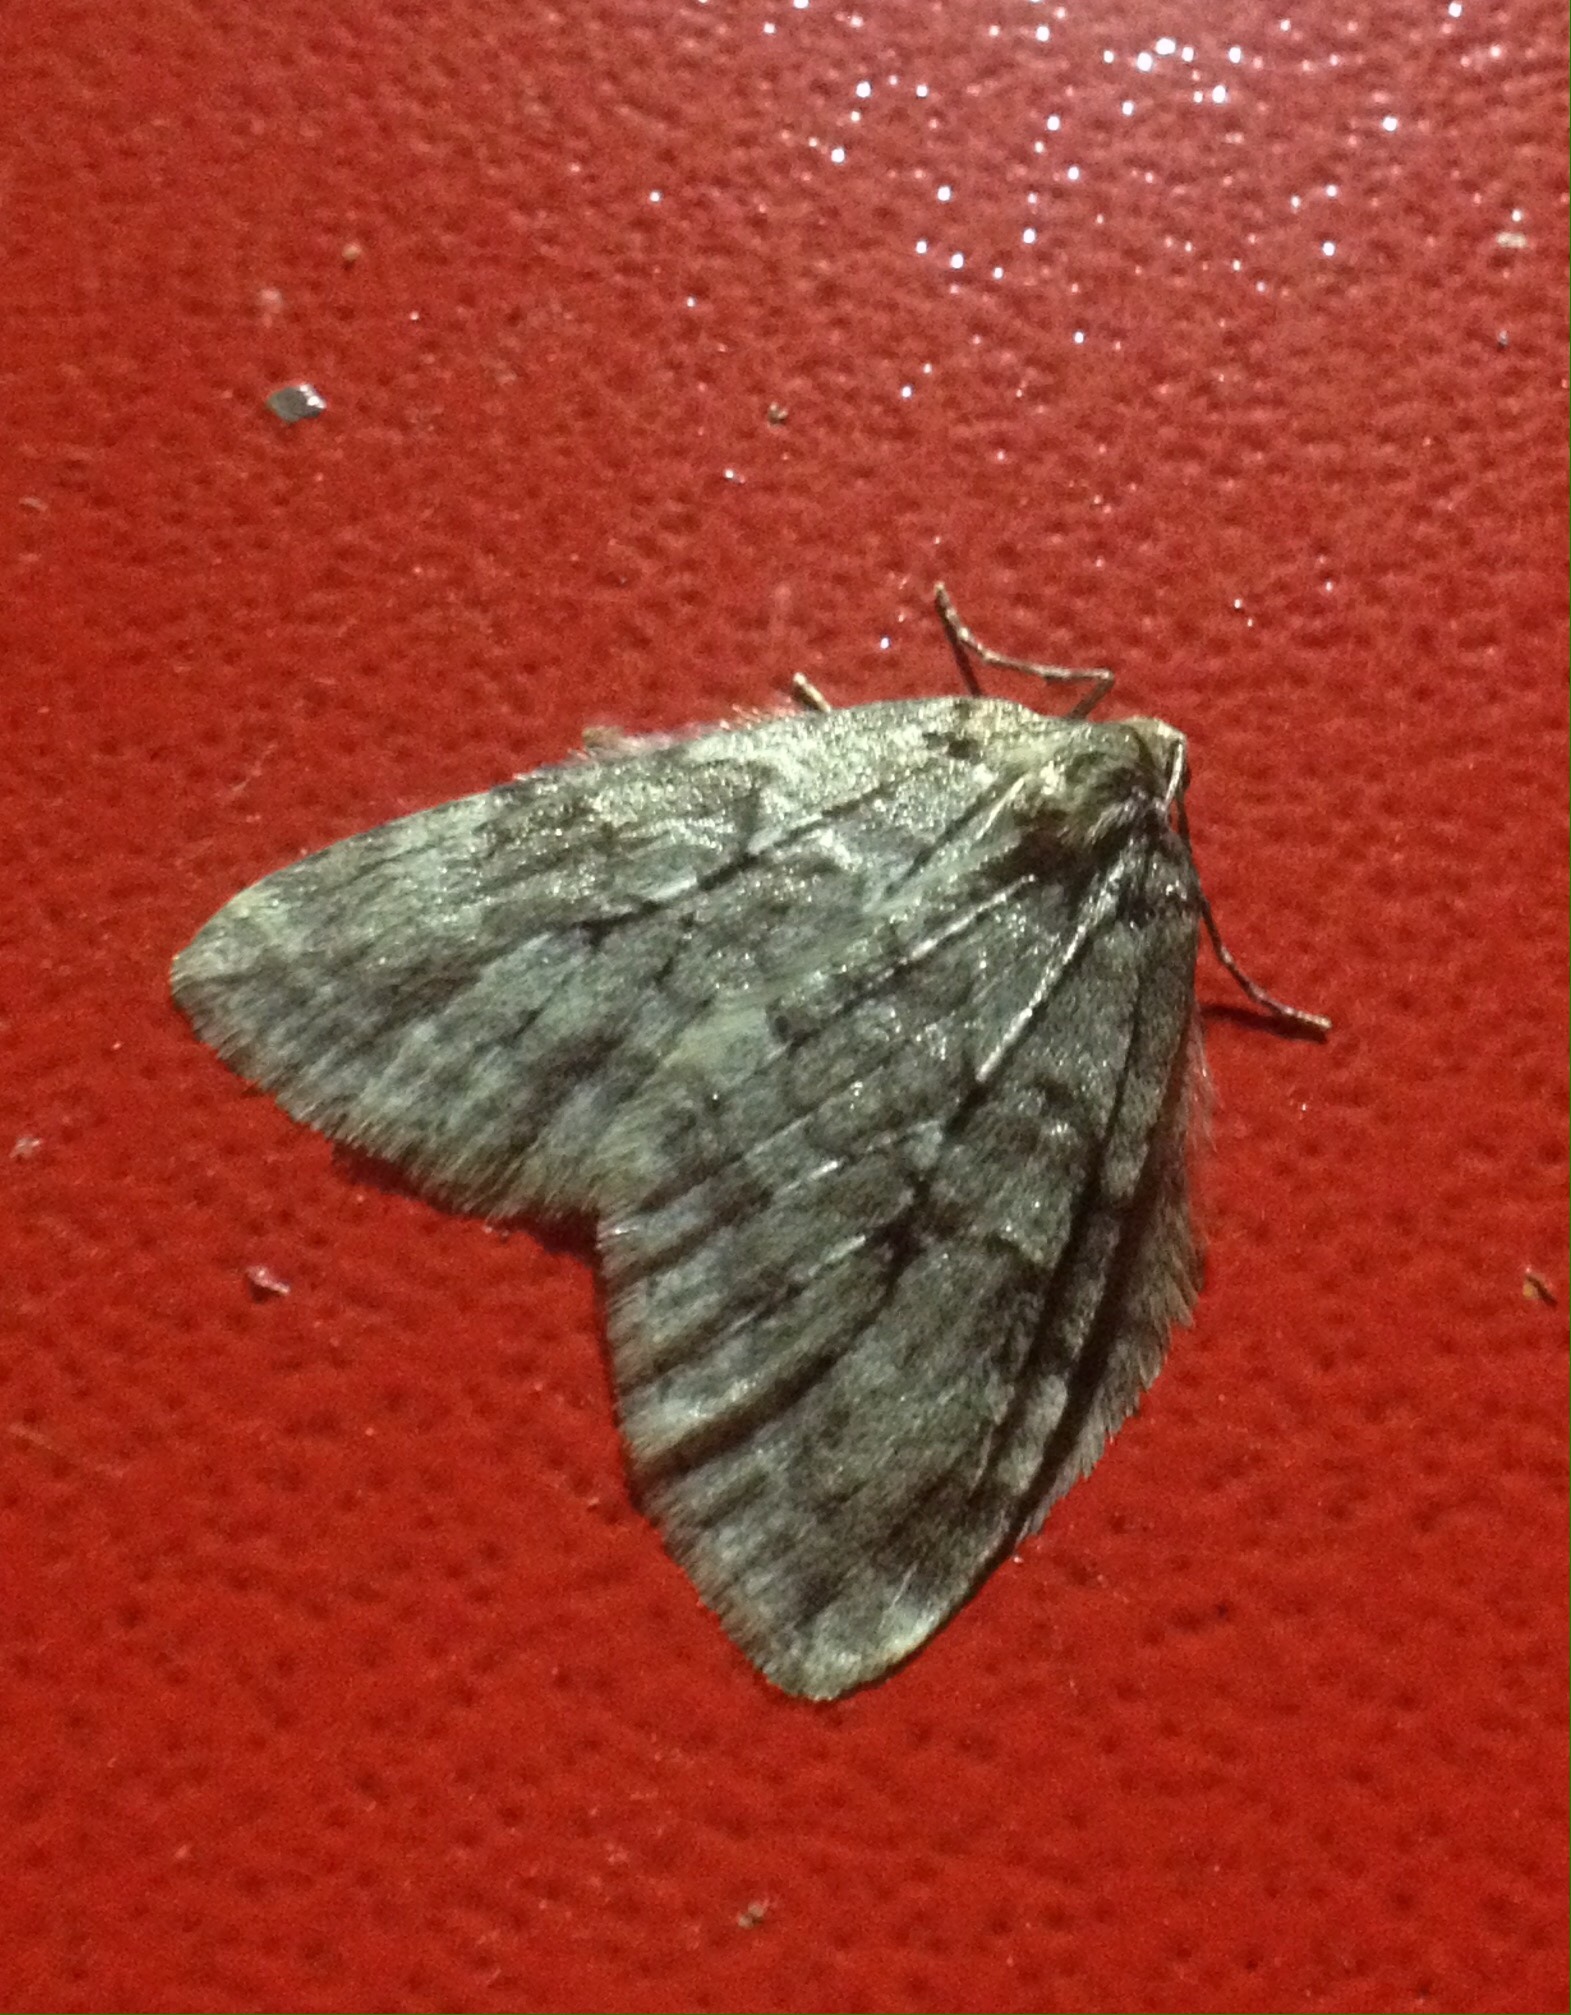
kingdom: Animalia
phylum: Arthropoda
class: Insecta
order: Lepidoptera
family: Geometridae
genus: Epirrita
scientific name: Epirrita autumnata
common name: Autumnal moth
